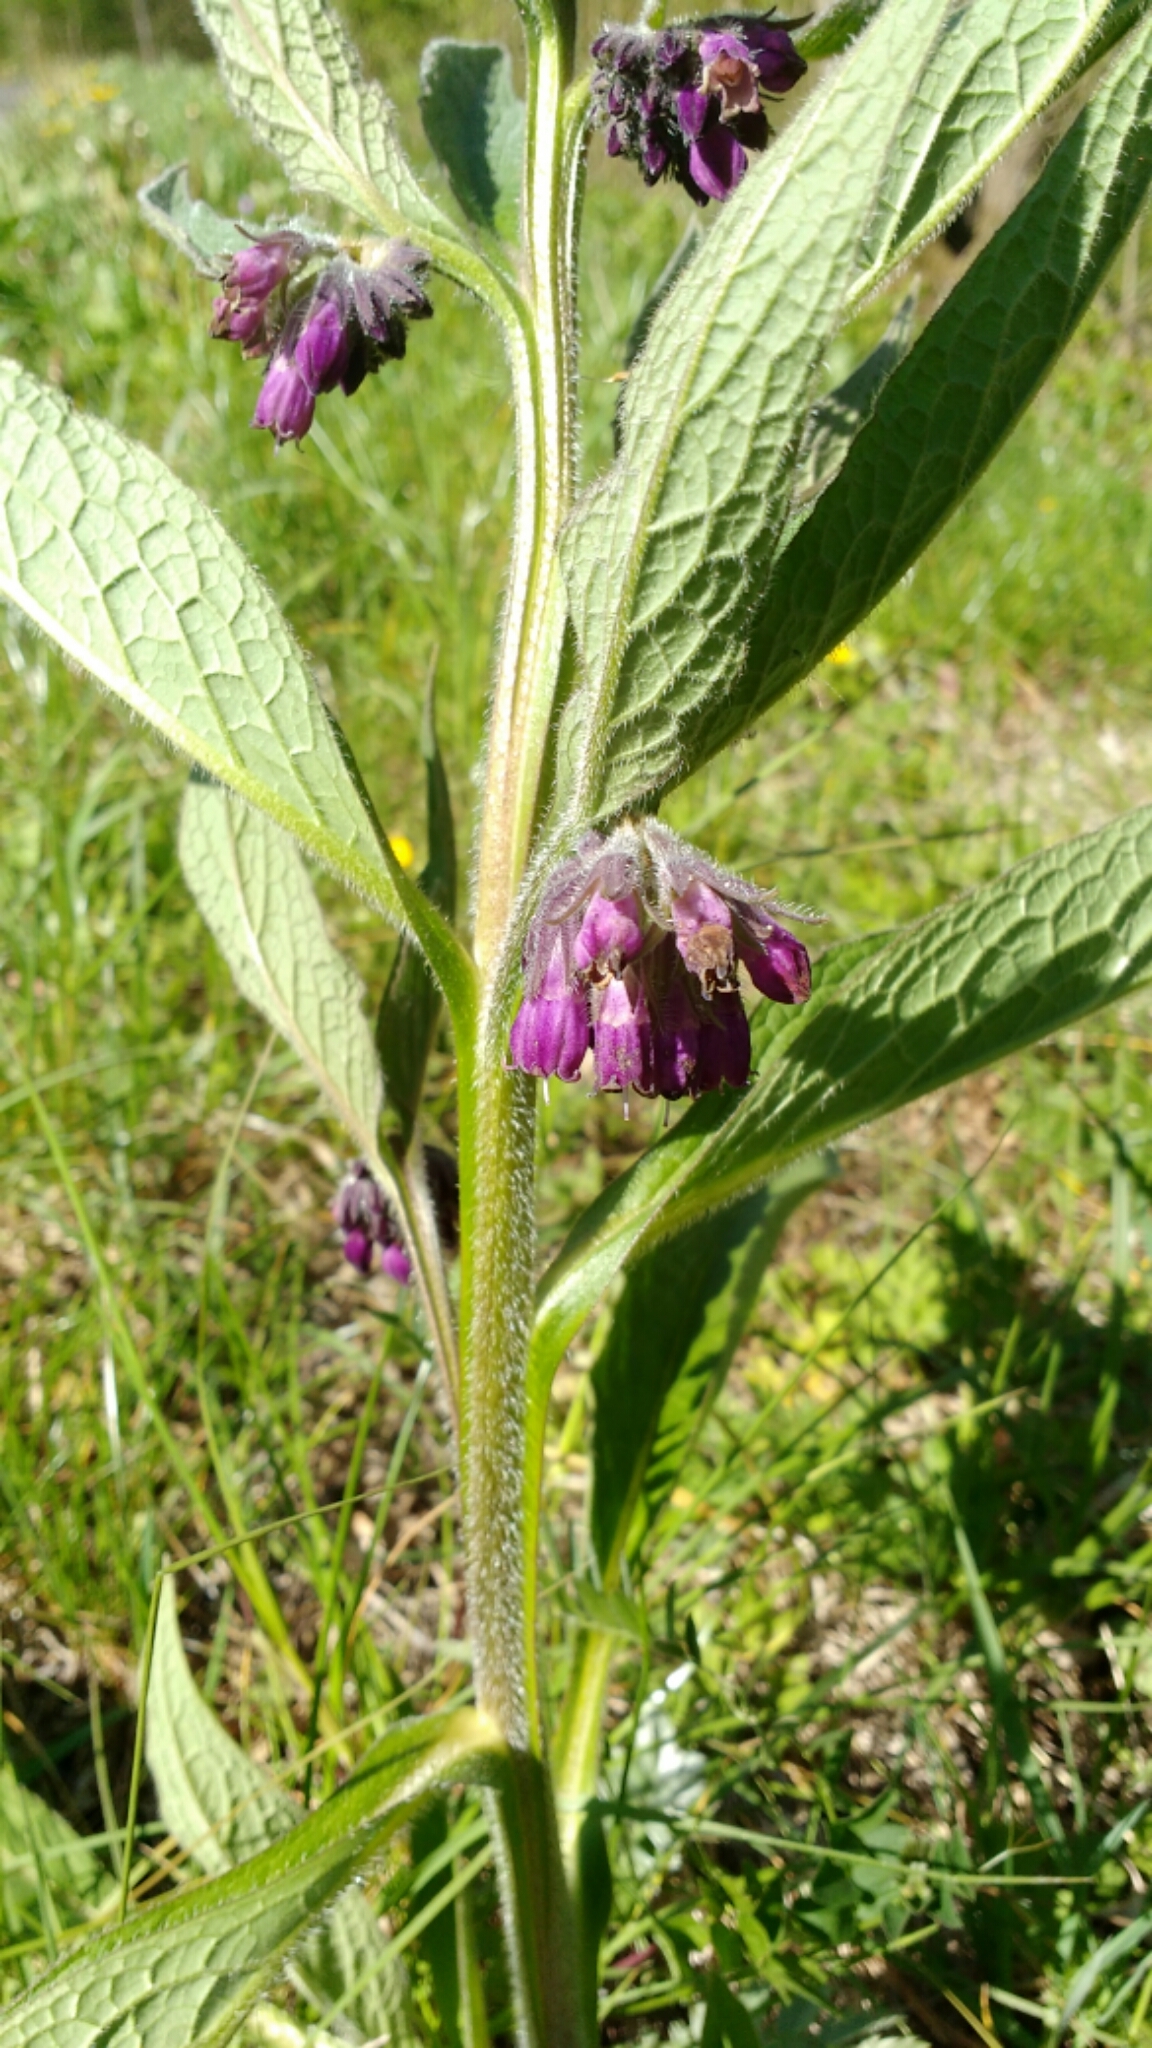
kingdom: Plantae
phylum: Tracheophyta
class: Magnoliopsida
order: Boraginales
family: Boraginaceae
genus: Symphytum
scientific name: Symphytum officinale
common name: Common comfrey
